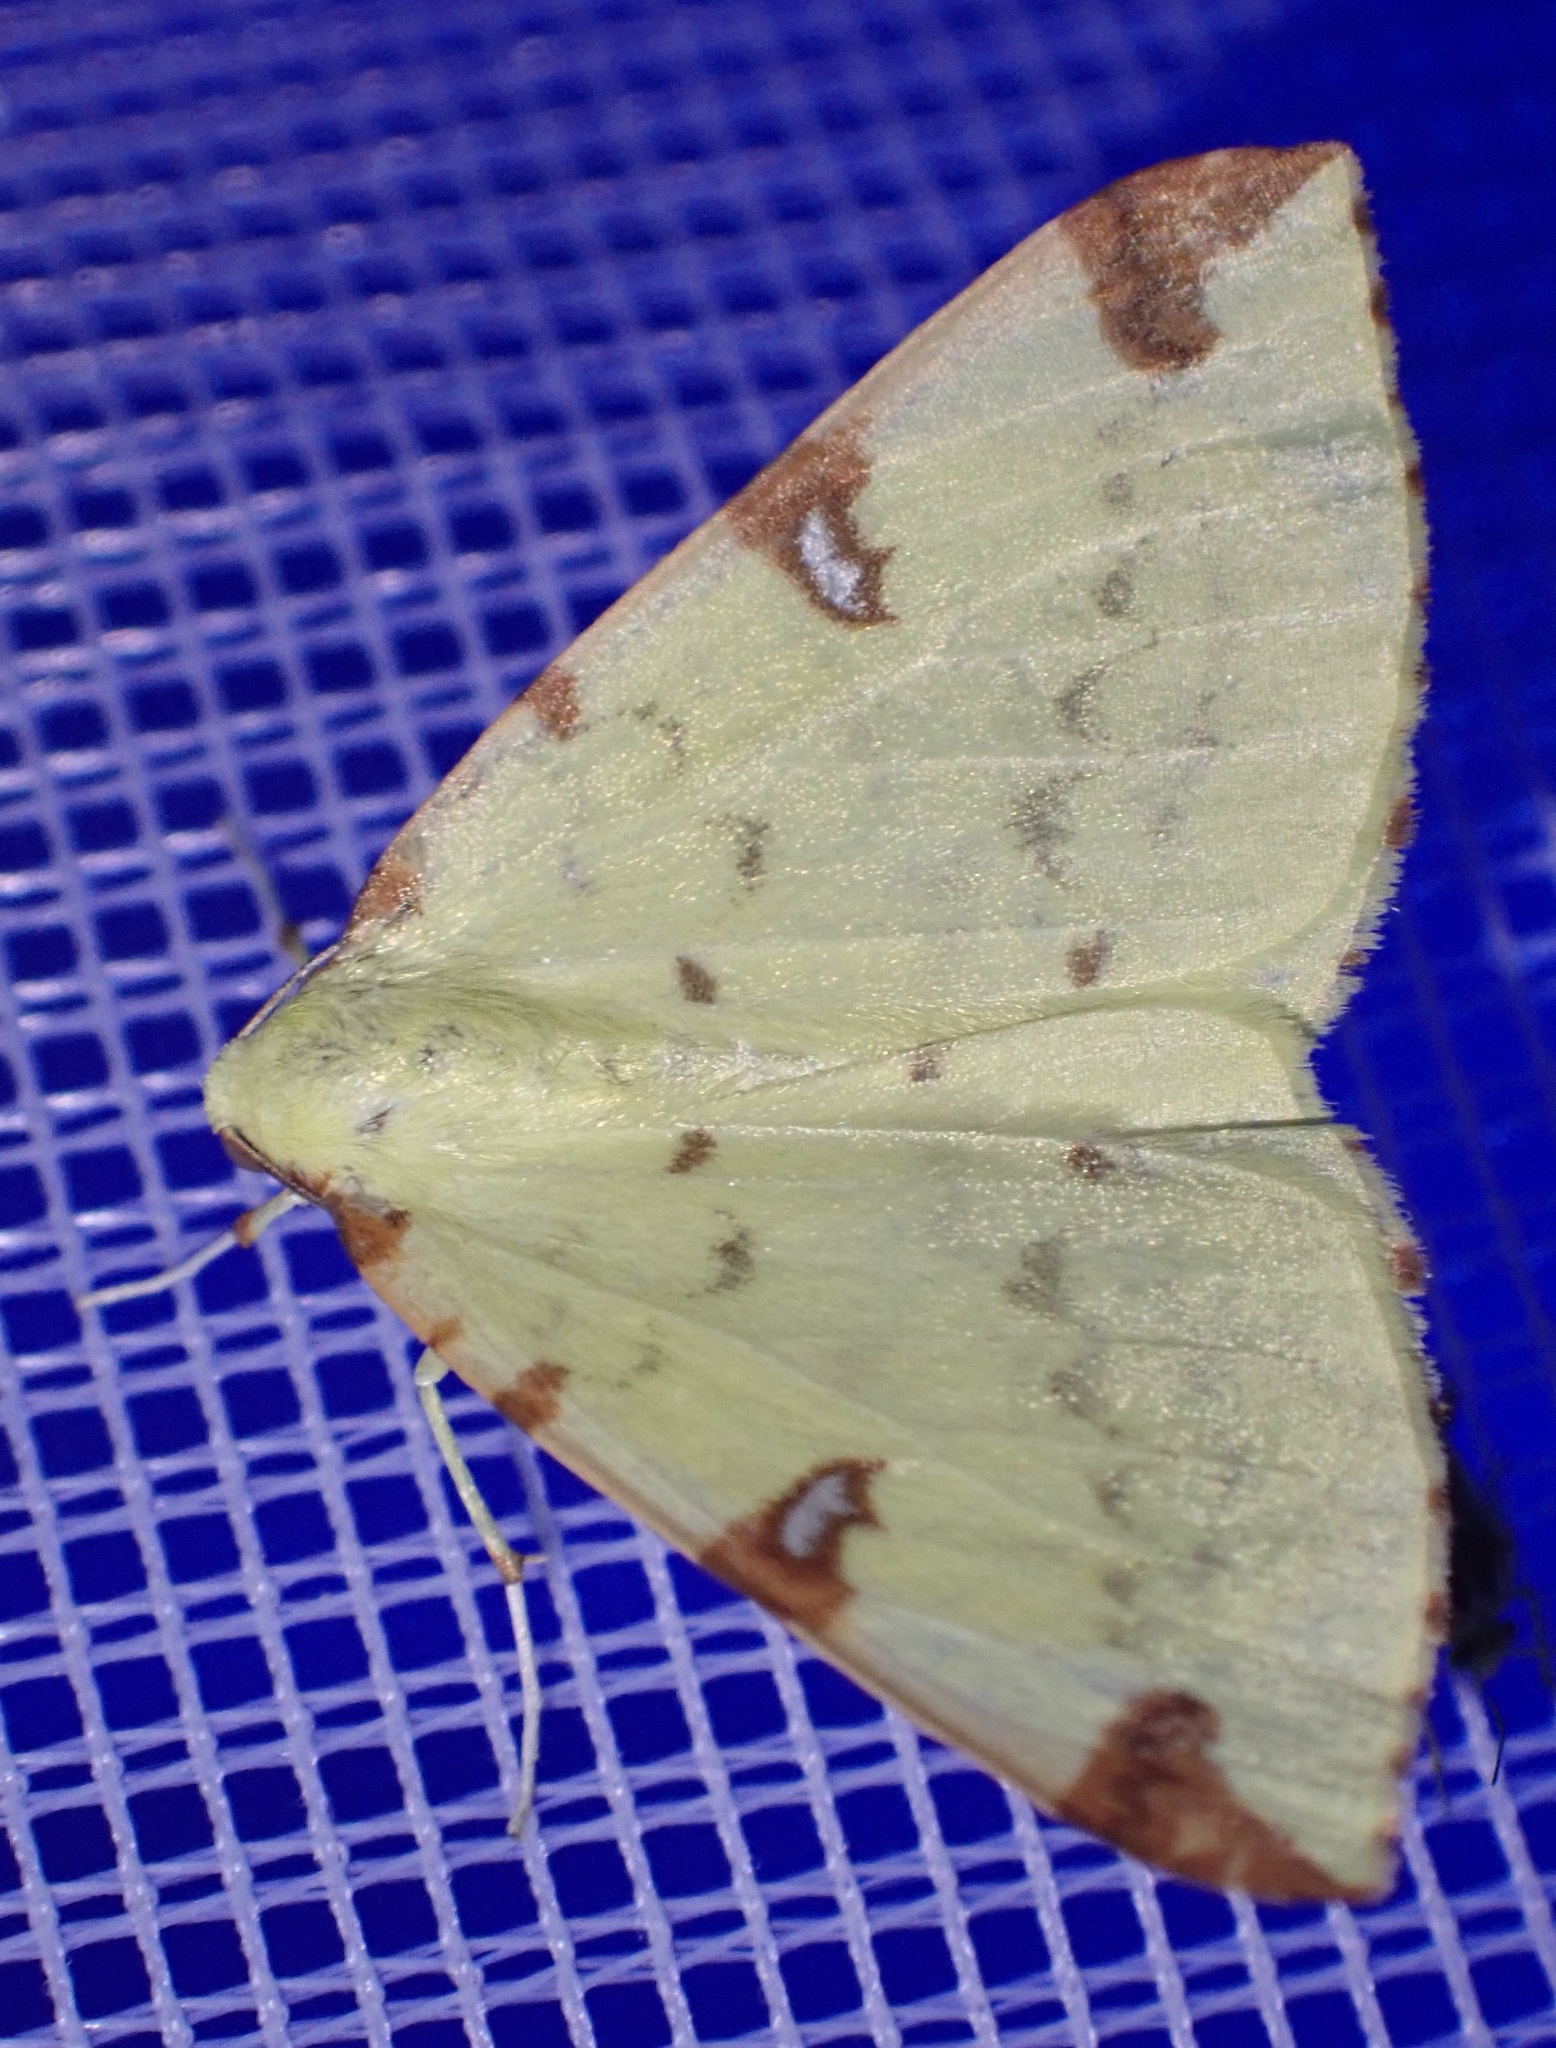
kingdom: Animalia
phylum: Arthropoda
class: Insecta
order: Lepidoptera
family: Geometridae
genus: Opisthograptis
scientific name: Opisthograptis luteolata
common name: Brimstone moth
